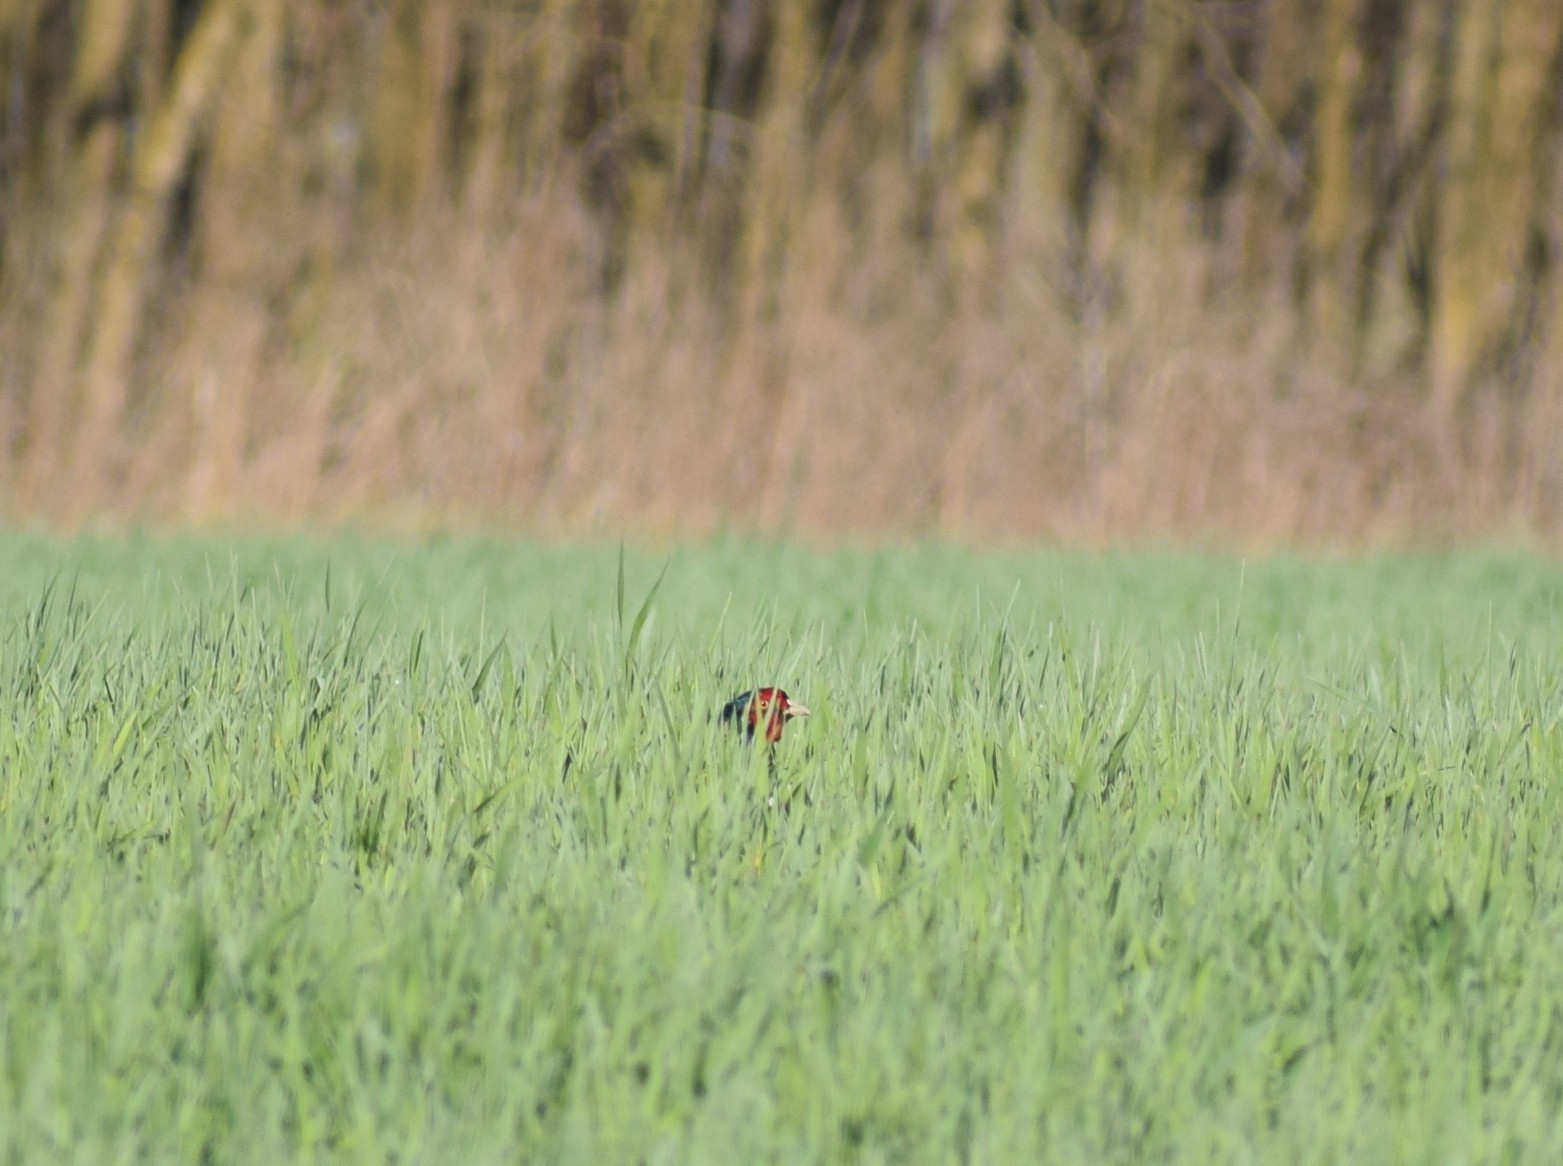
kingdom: Animalia
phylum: Chordata
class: Aves
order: Galliformes
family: Phasianidae
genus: Phasianus
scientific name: Phasianus colchicus
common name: Common pheasant
